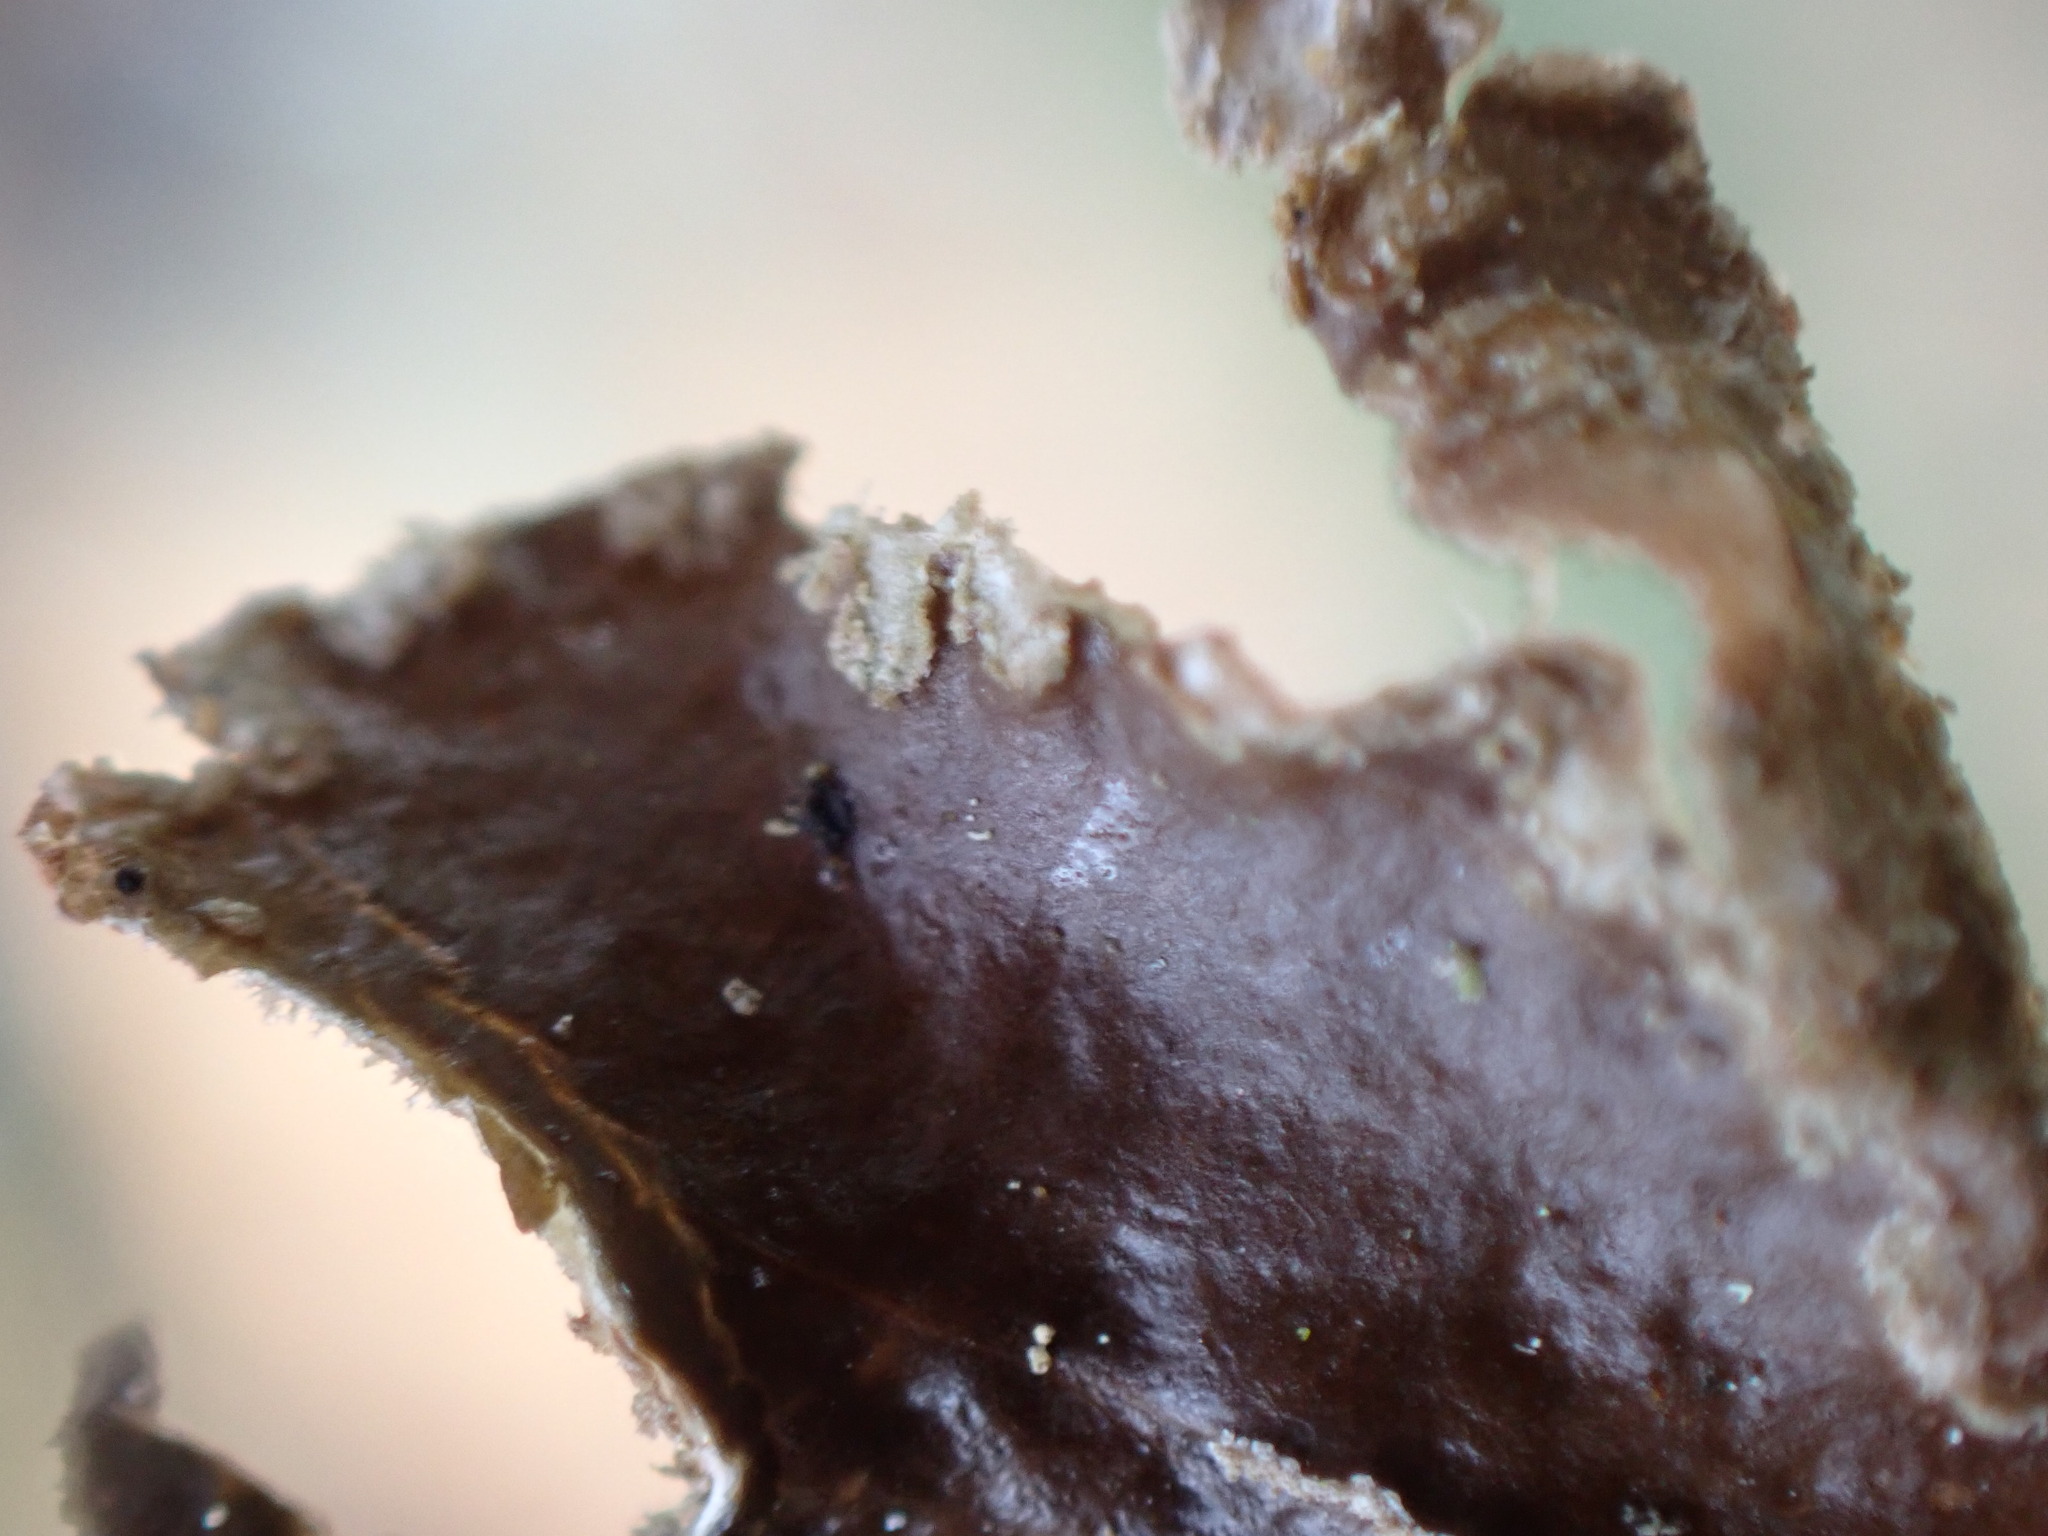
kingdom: Fungi
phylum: Ascomycota
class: Lecanoromycetes
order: Peltigerales
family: Lobariaceae
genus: Sticta
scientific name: Sticta limbata
